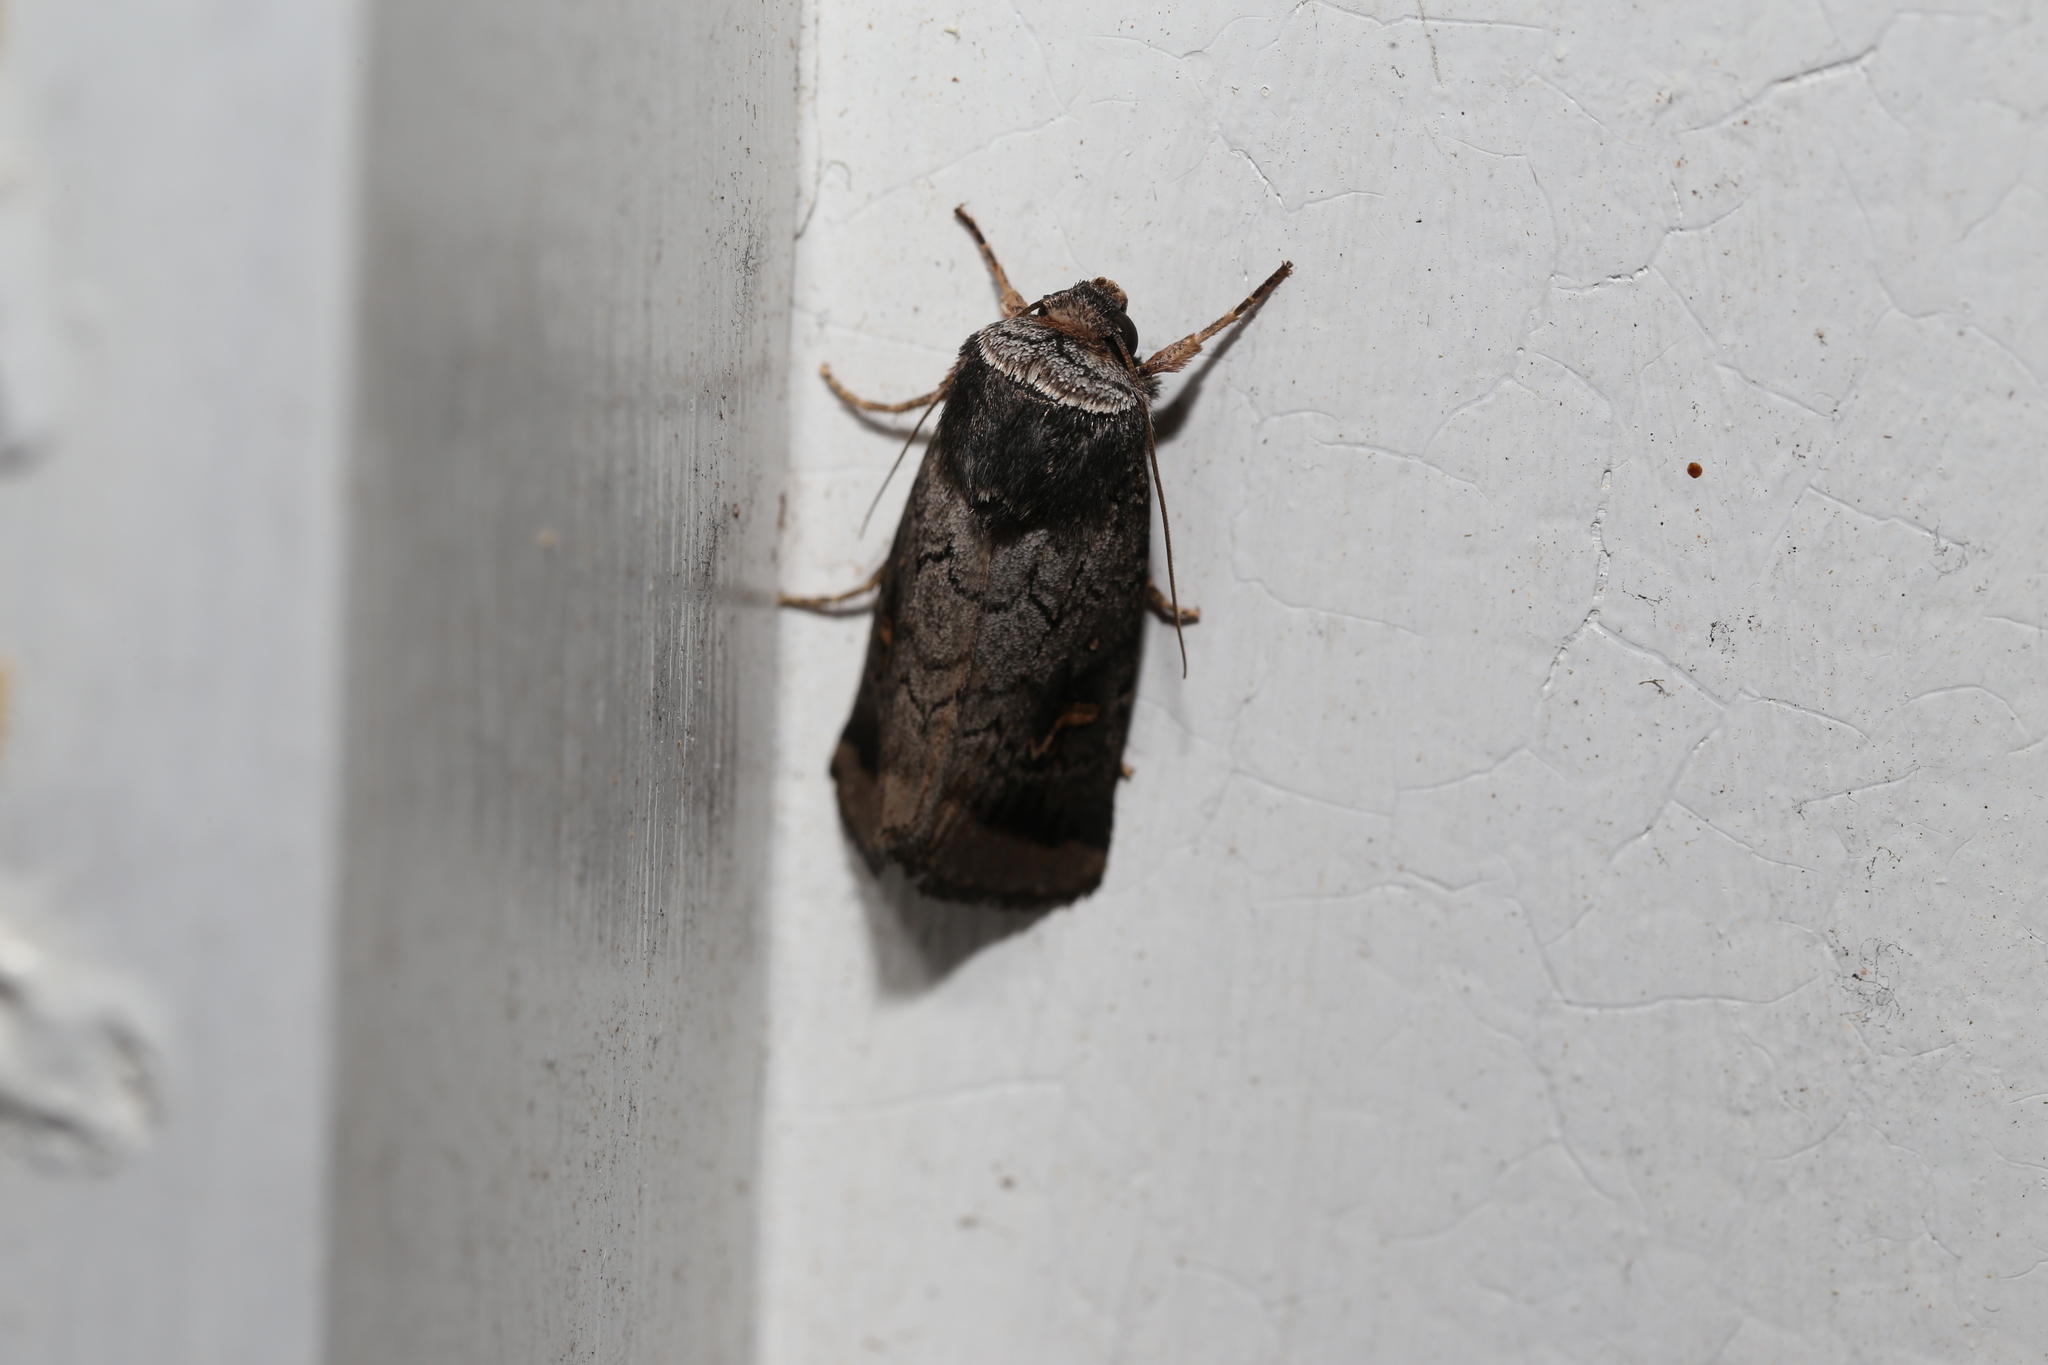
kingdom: Animalia
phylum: Arthropoda
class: Insecta
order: Lepidoptera
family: Noctuidae
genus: Proteuxoa
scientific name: Proteuxoa restituta
